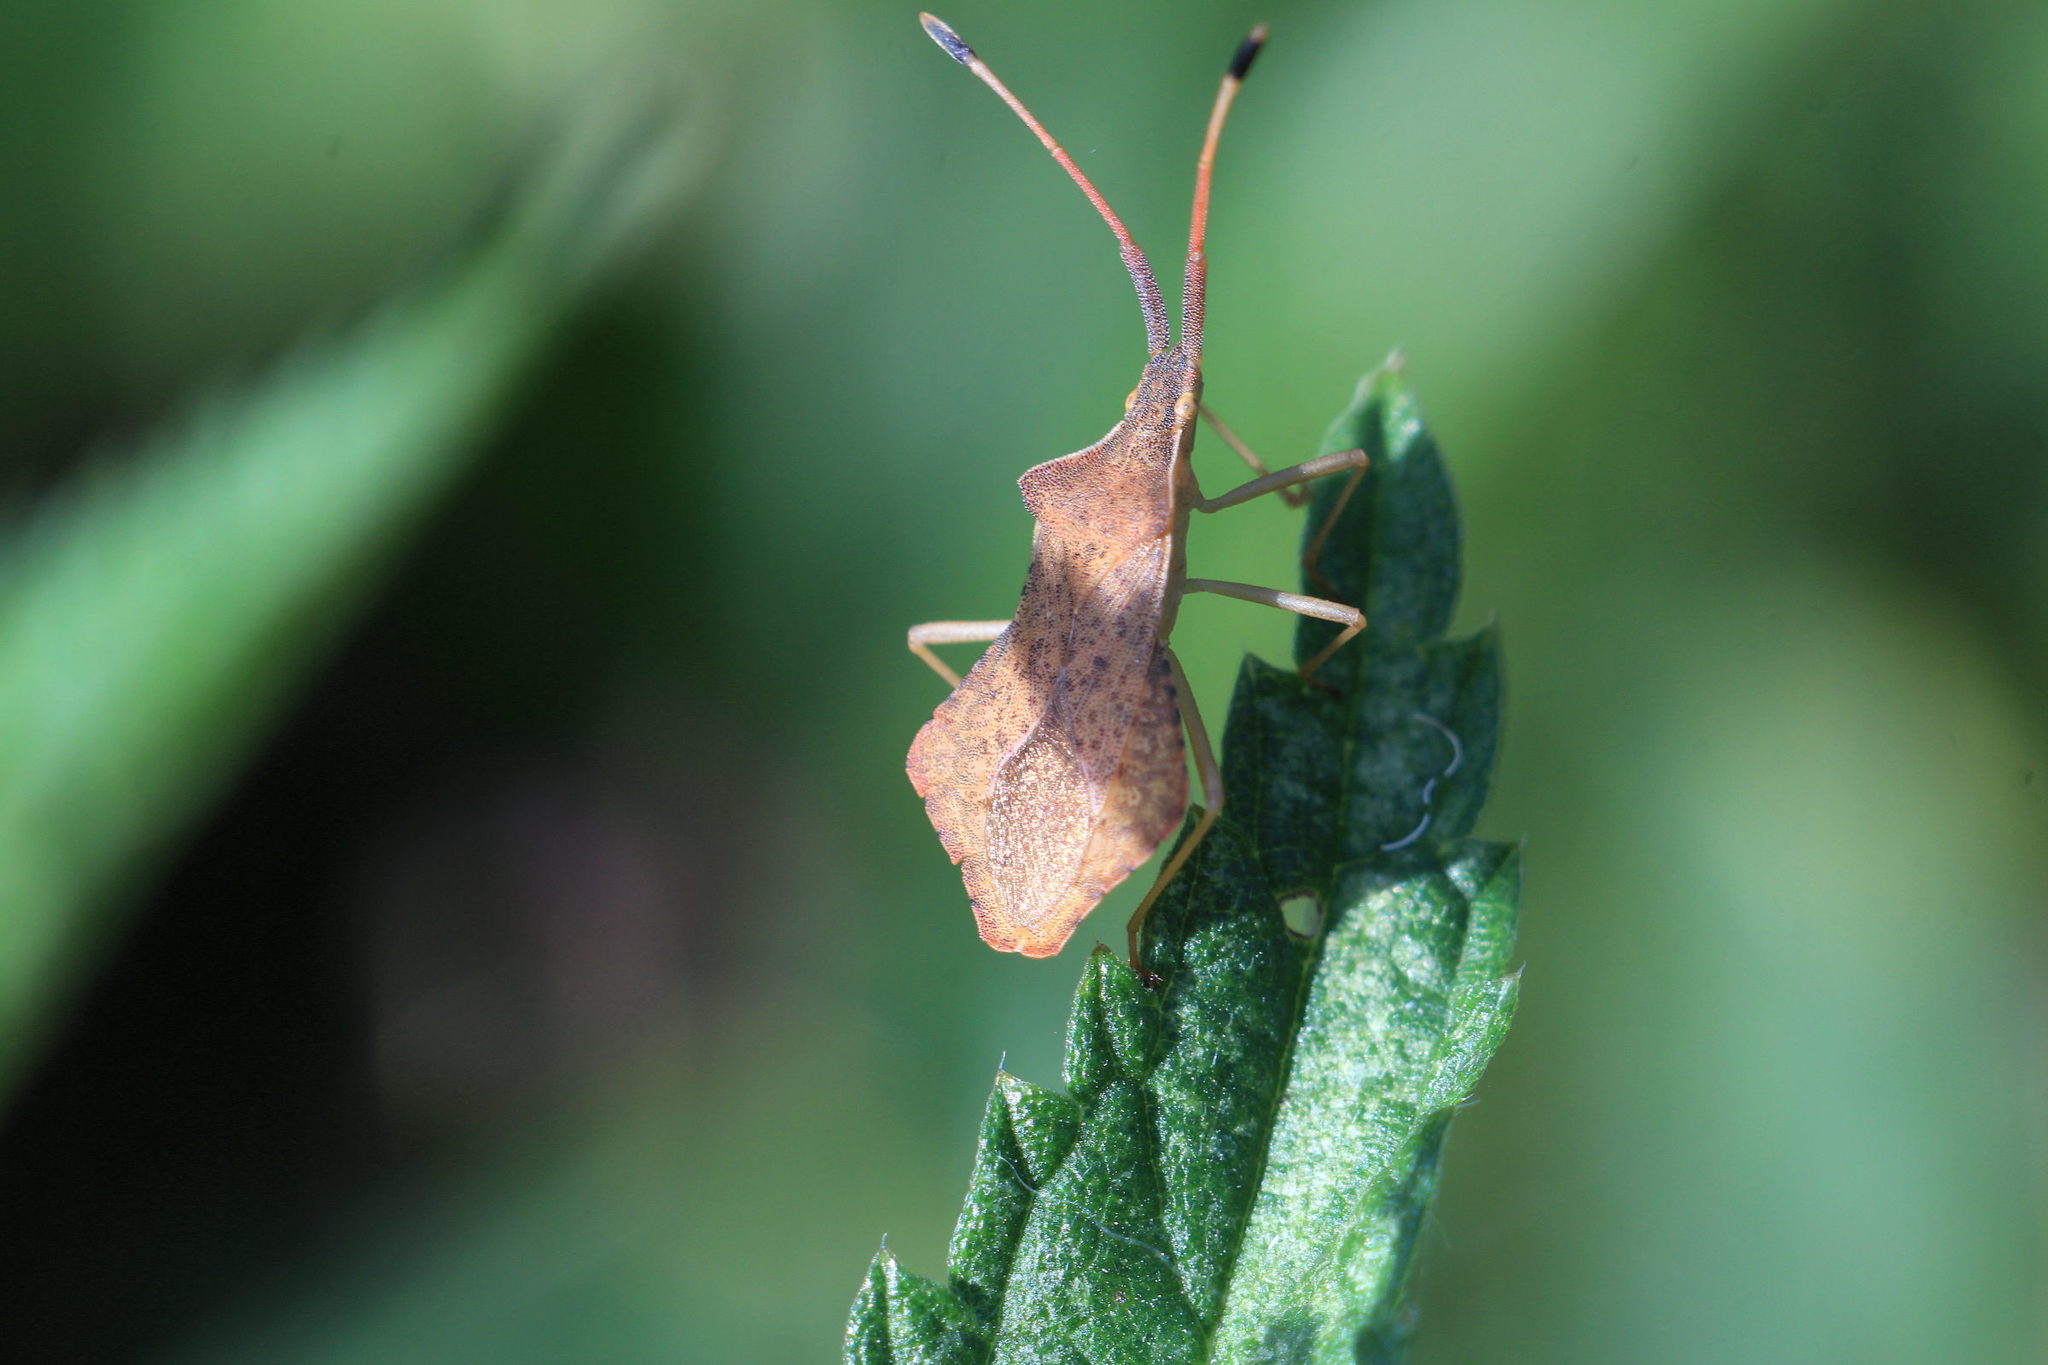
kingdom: Animalia
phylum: Arthropoda
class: Insecta
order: Hemiptera
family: Coreidae
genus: Syromastus
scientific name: Syromastus rhombeus
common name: Rhombic leatherbug
